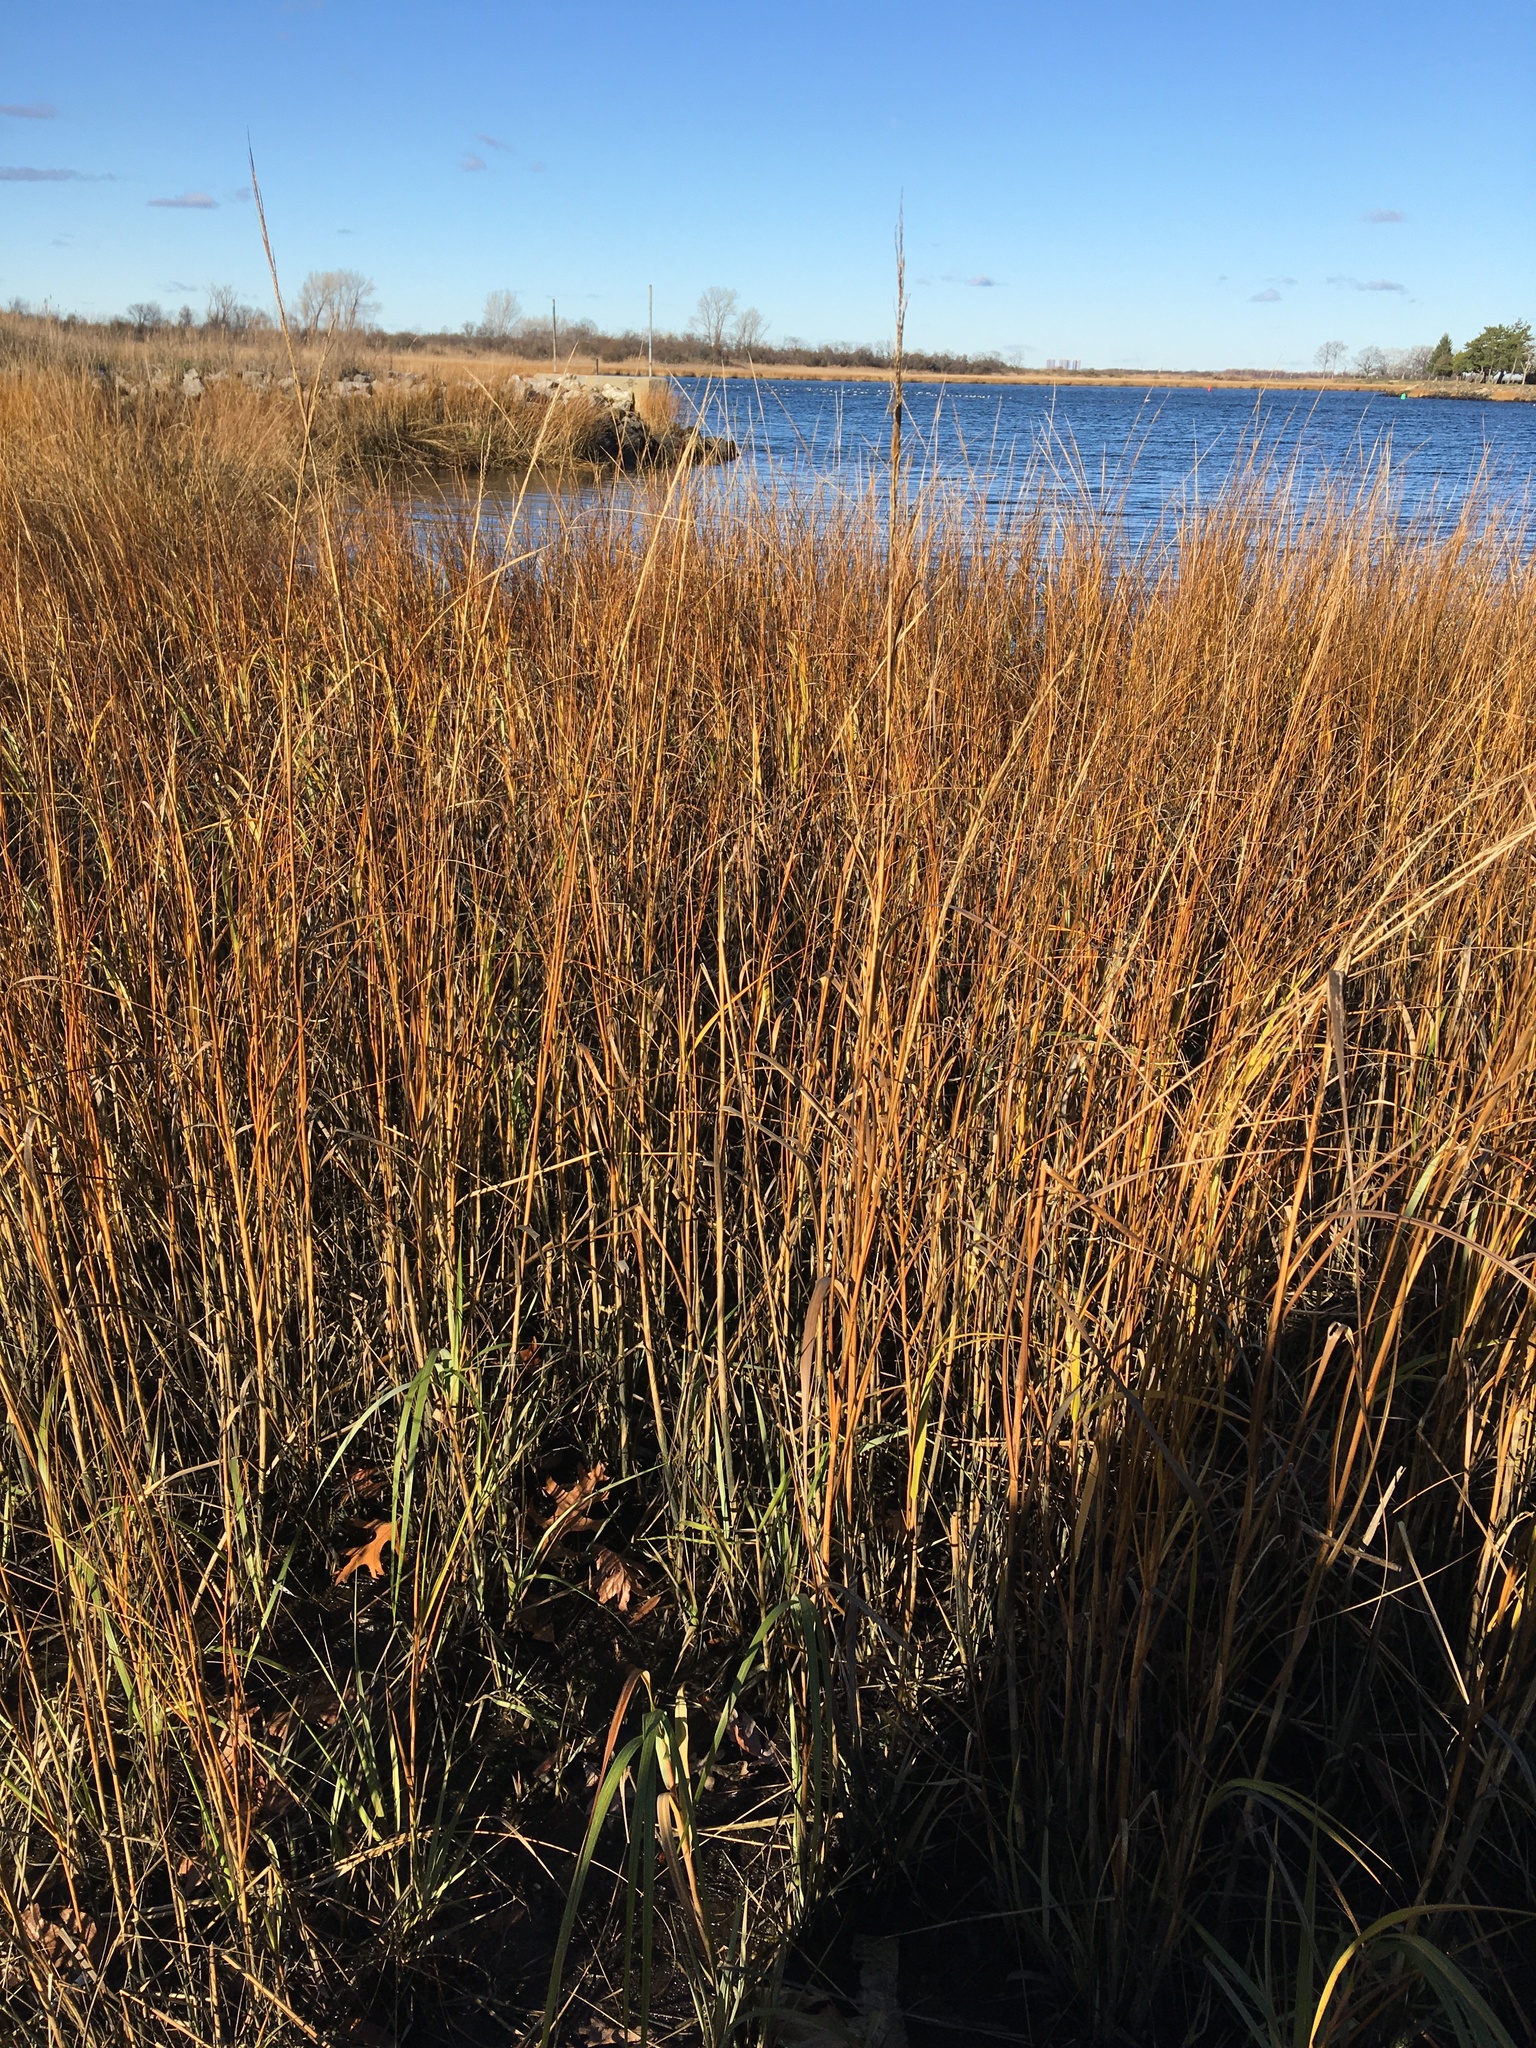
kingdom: Plantae
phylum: Tracheophyta
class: Liliopsida
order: Poales
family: Poaceae
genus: Sporobolus
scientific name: Sporobolus alterniflorus
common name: Atlantic cordgrass
